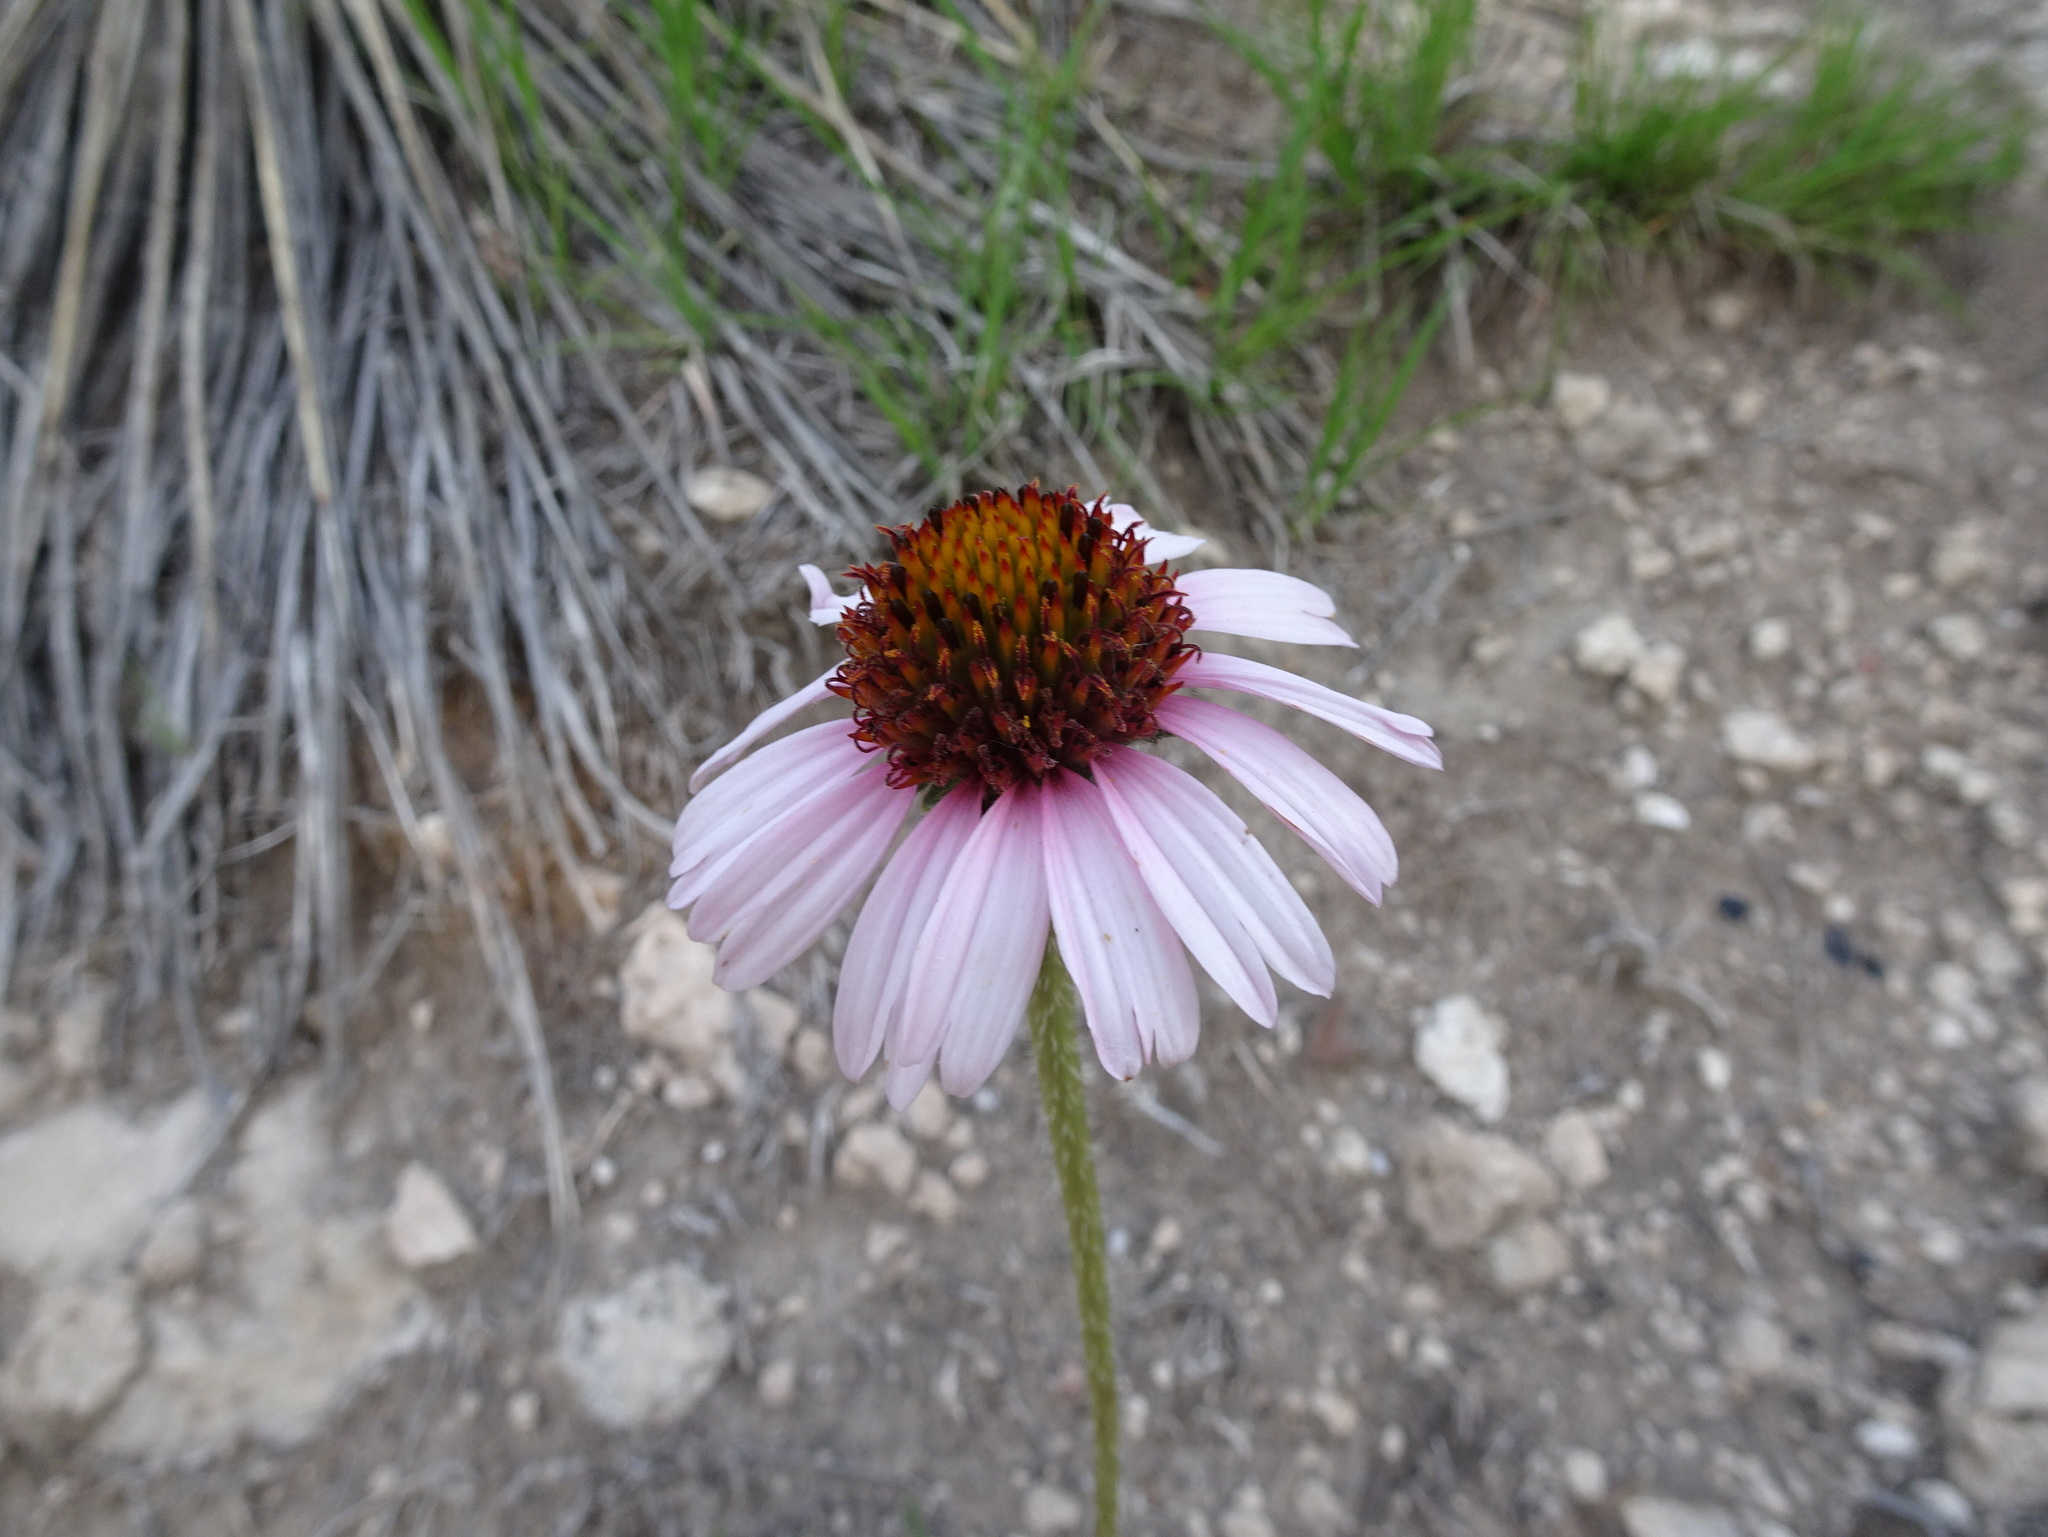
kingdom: Plantae
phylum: Tracheophyta
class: Magnoliopsida
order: Asterales
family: Asteraceae
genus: Echinacea
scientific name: Echinacea angustifolia
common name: Black-sampson echinacea
